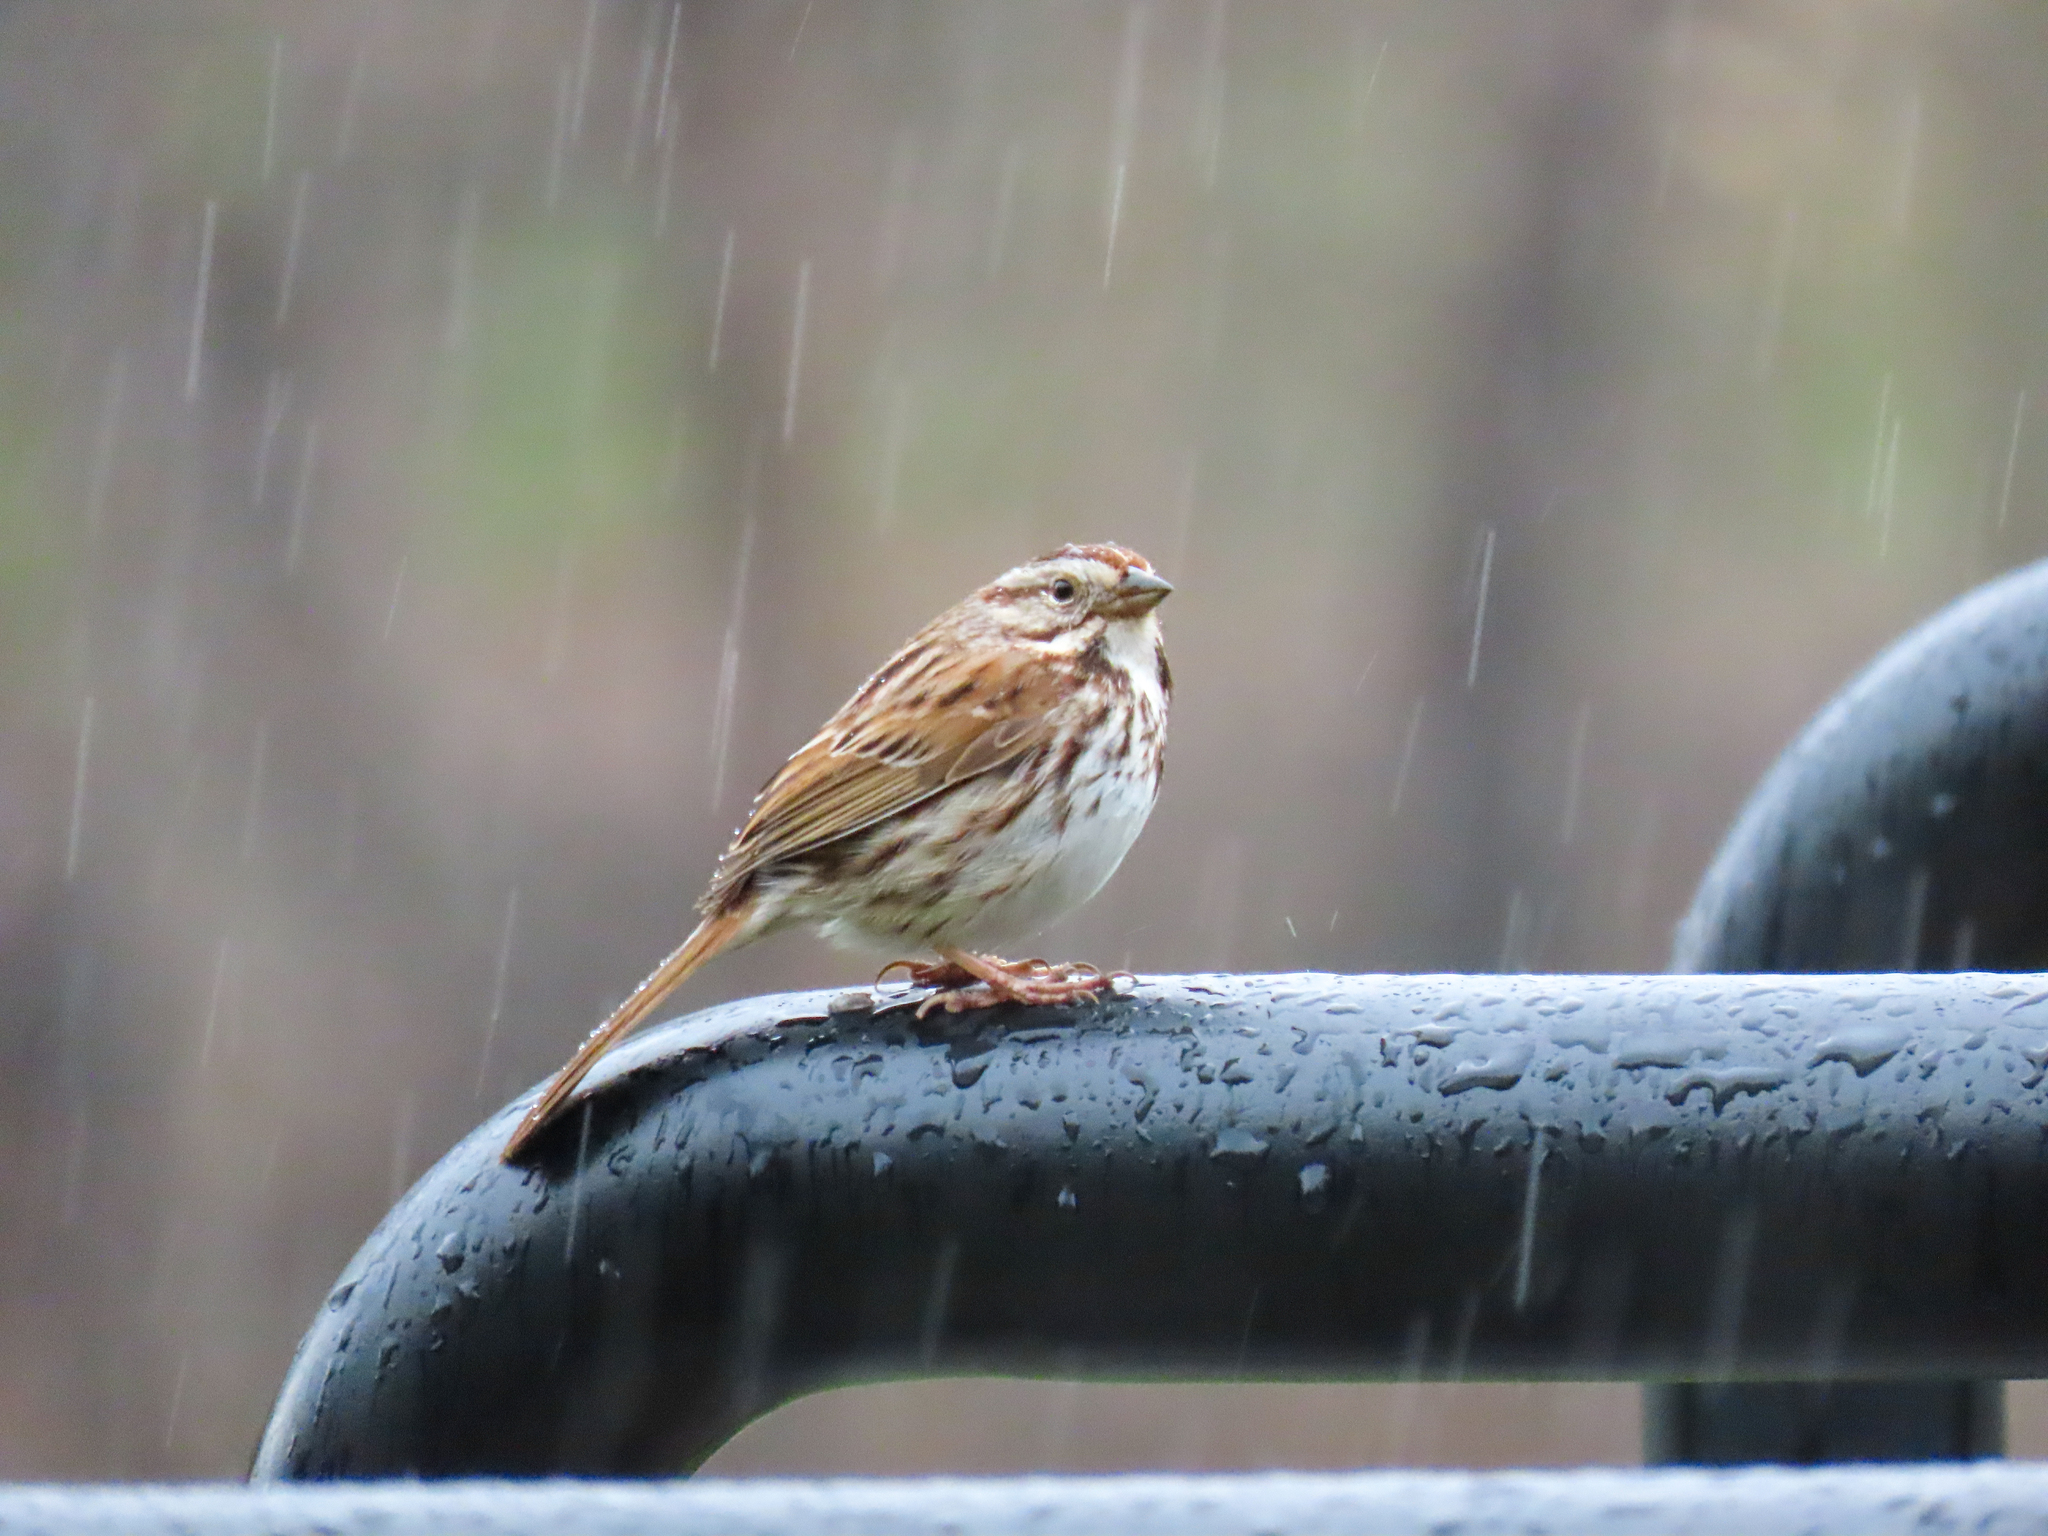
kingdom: Animalia
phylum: Chordata
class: Aves
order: Passeriformes
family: Passerellidae
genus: Melospiza
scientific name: Melospiza melodia
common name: Song sparrow
